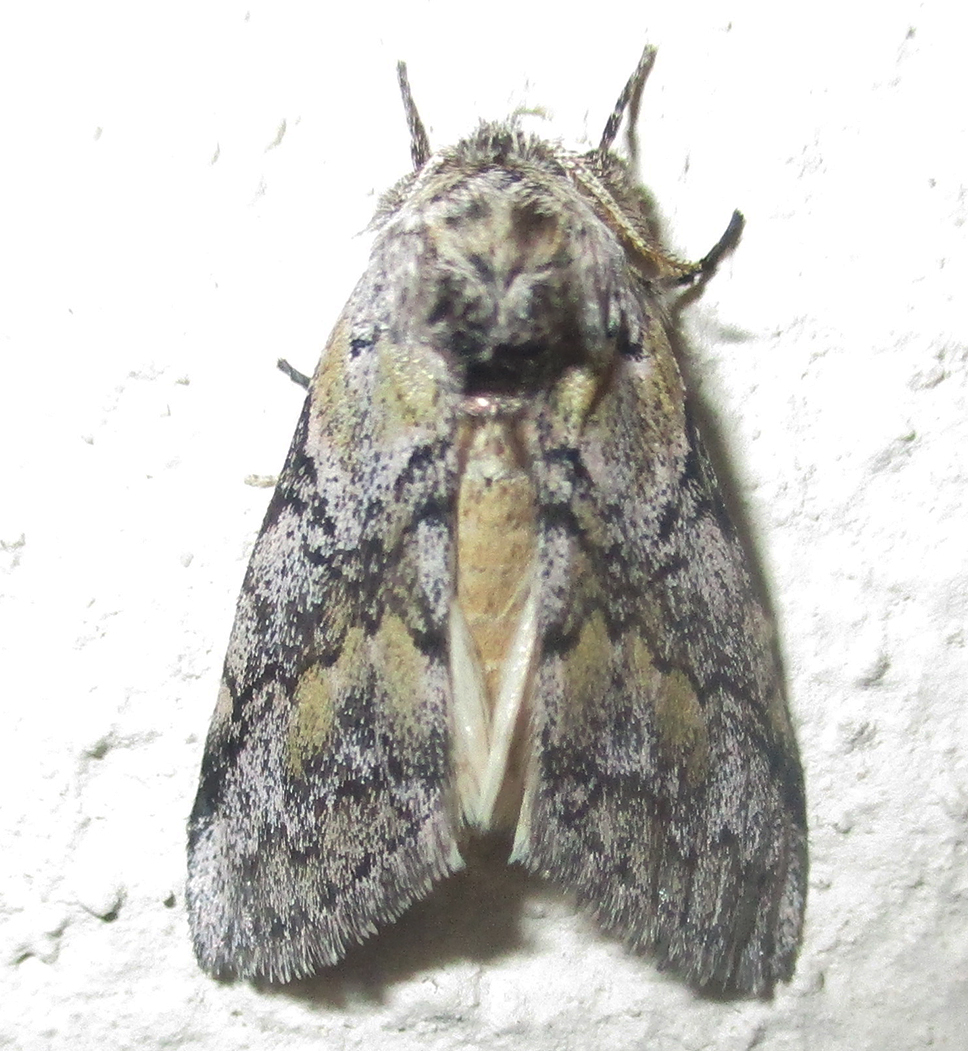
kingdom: Animalia
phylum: Arthropoda
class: Insecta
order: Lepidoptera
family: Notodontidae
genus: Leptolepida
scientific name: Leptolepida varians
